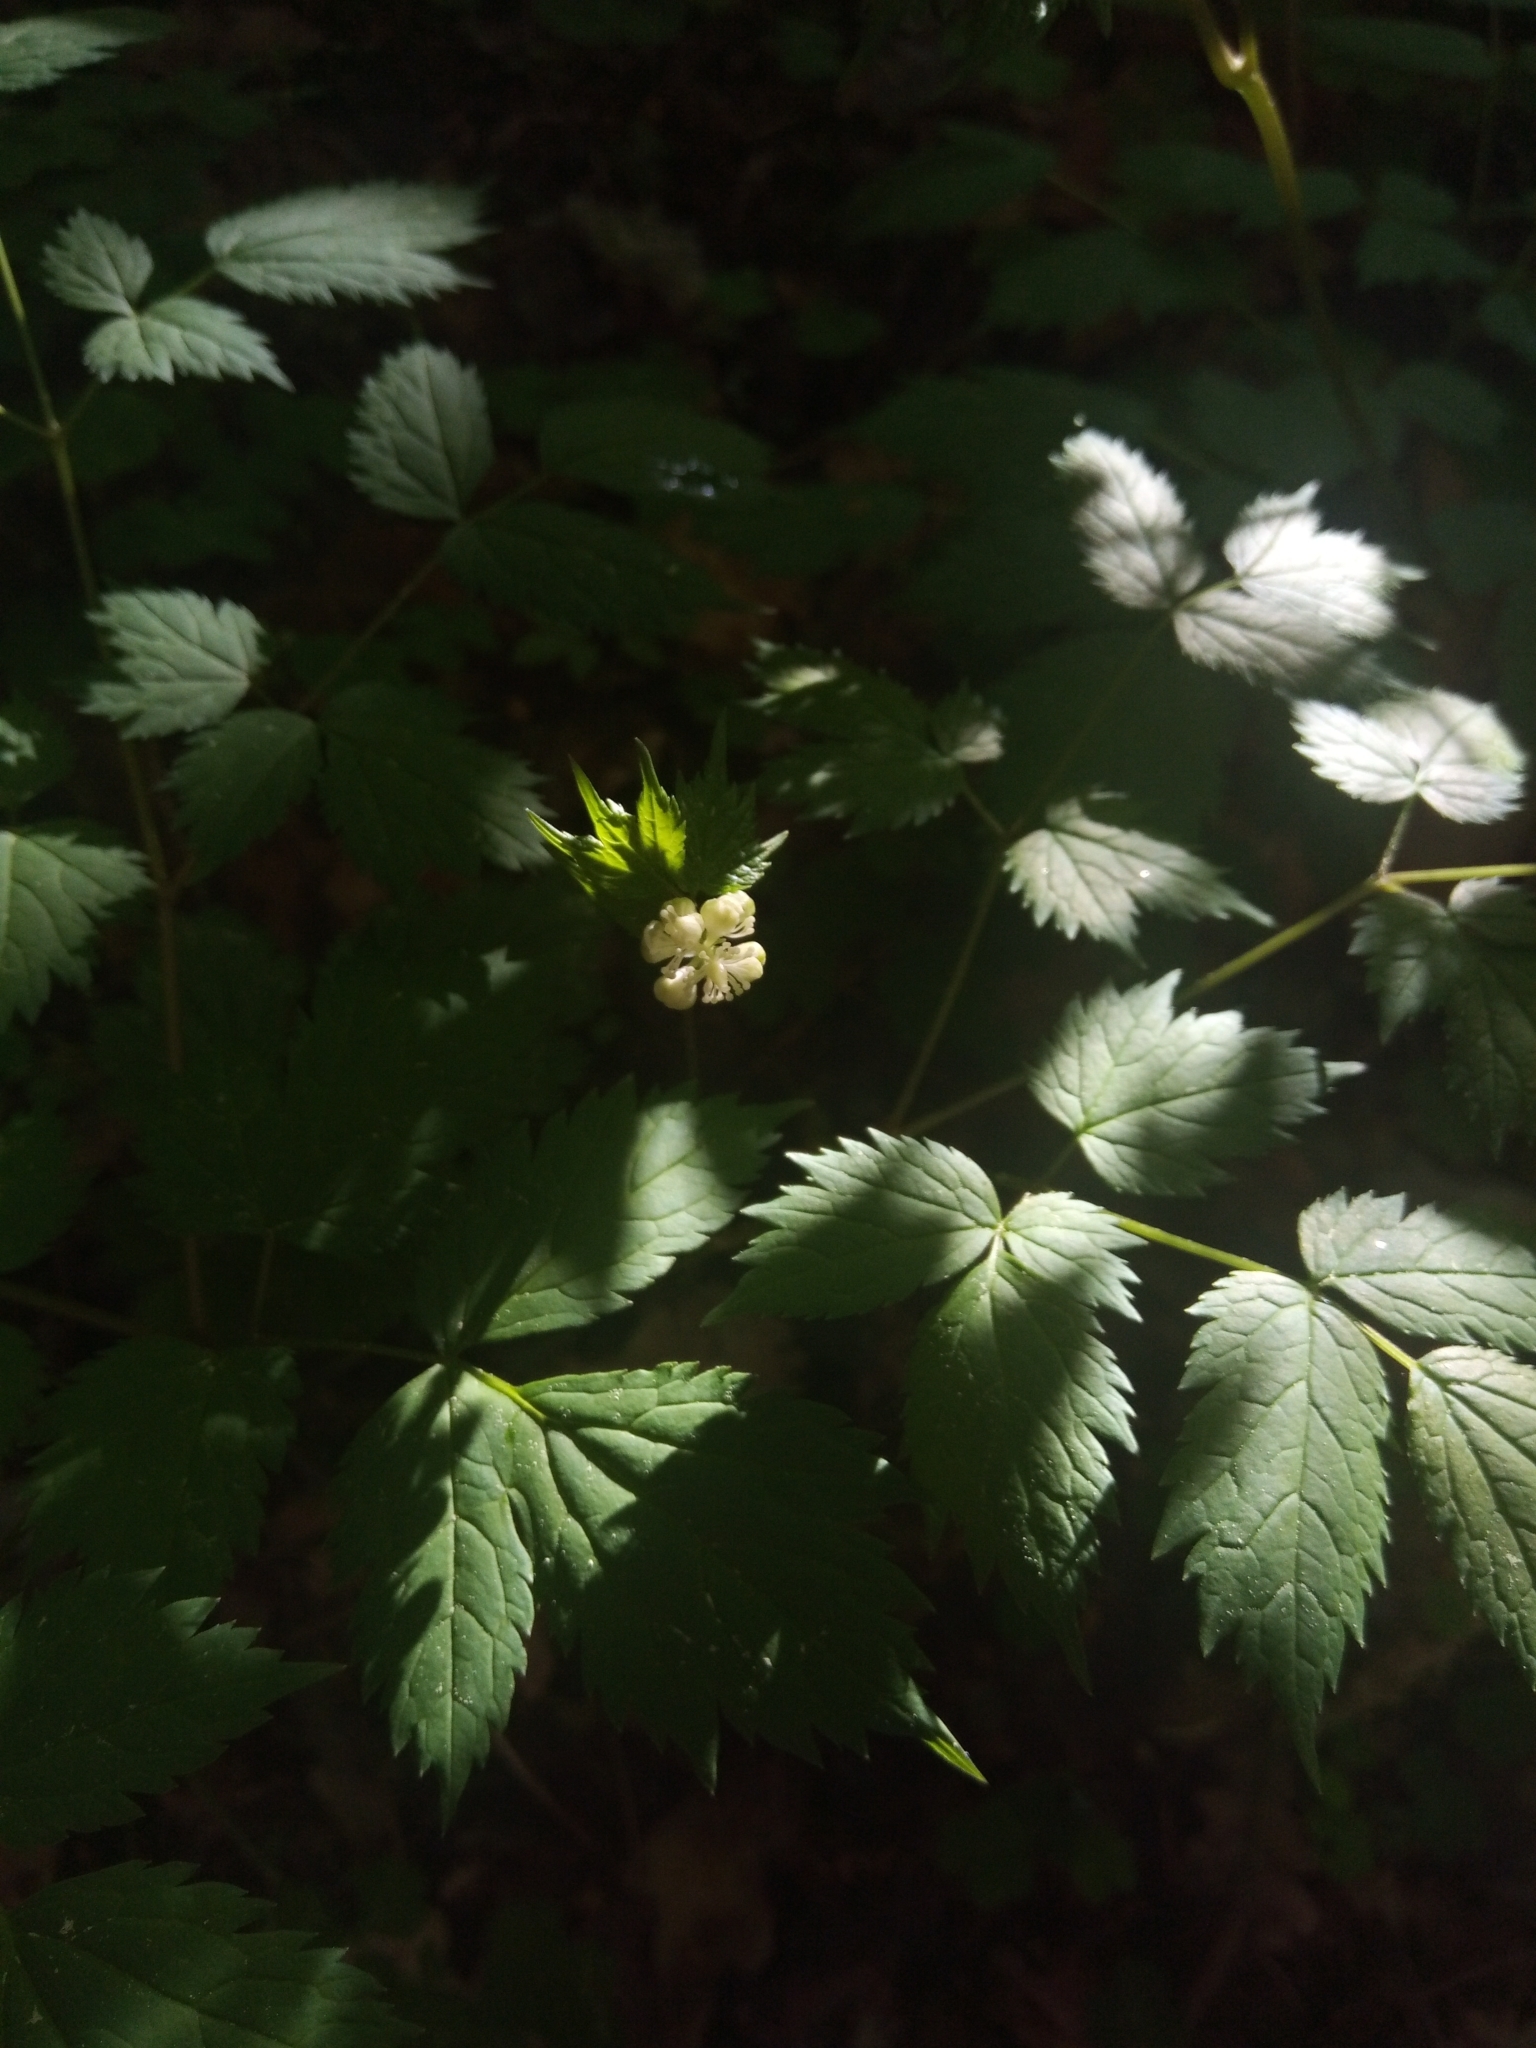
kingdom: Plantae
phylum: Tracheophyta
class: Magnoliopsida
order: Ranunculales
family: Ranunculaceae
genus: Actaea
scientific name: Actaea spicata
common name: Baneberry
